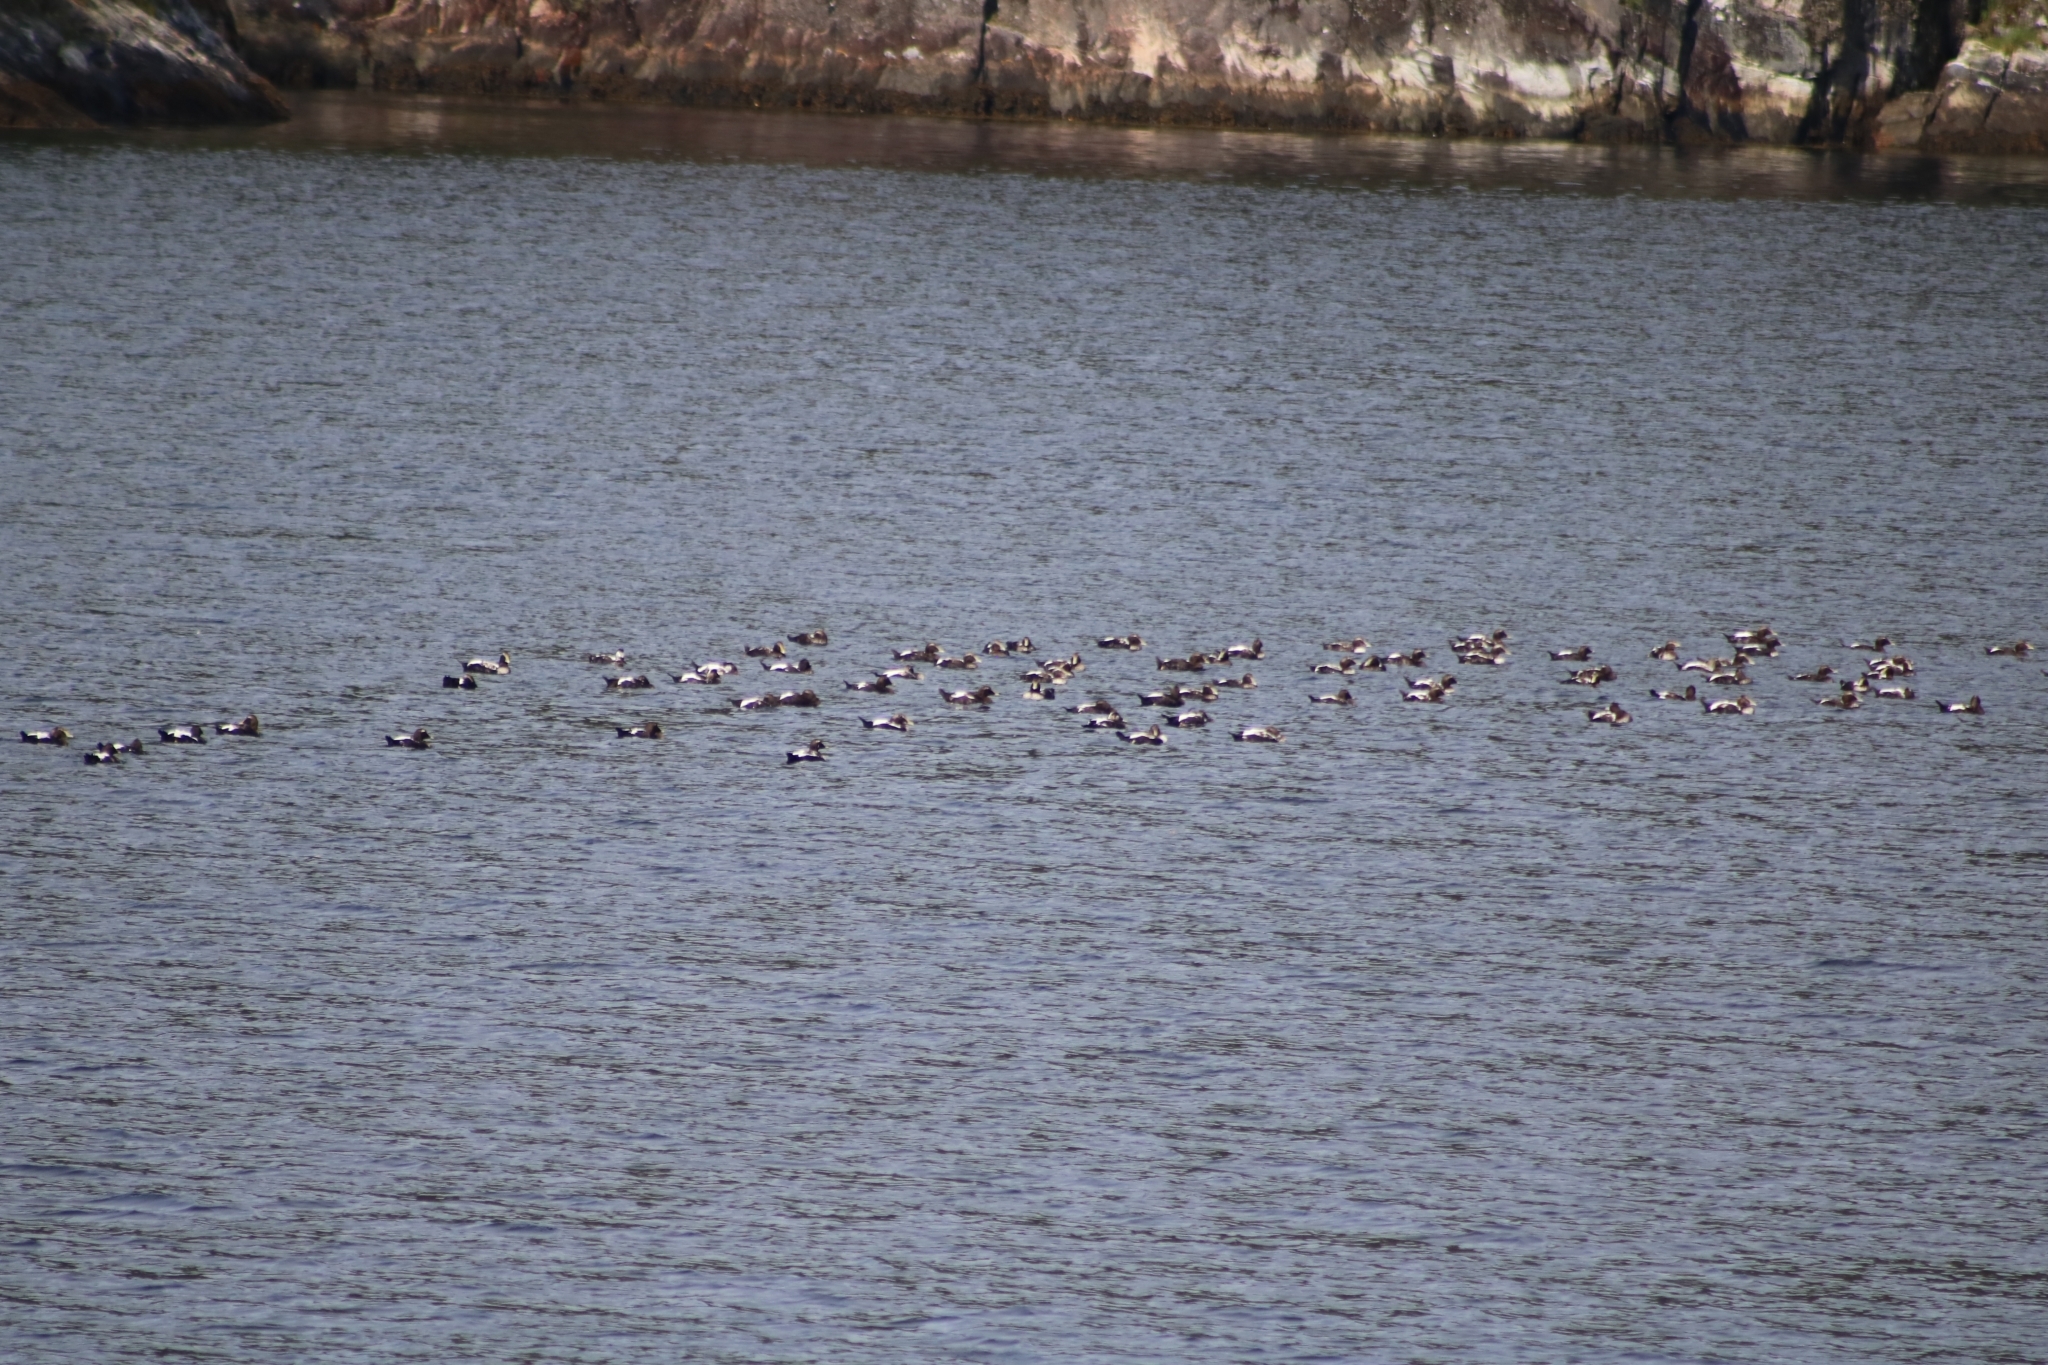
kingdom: Animalia
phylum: Chordata
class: Aves
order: Anseriformes
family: Anatidae
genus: Somateria
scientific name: Somateria mollissima
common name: Common eider
